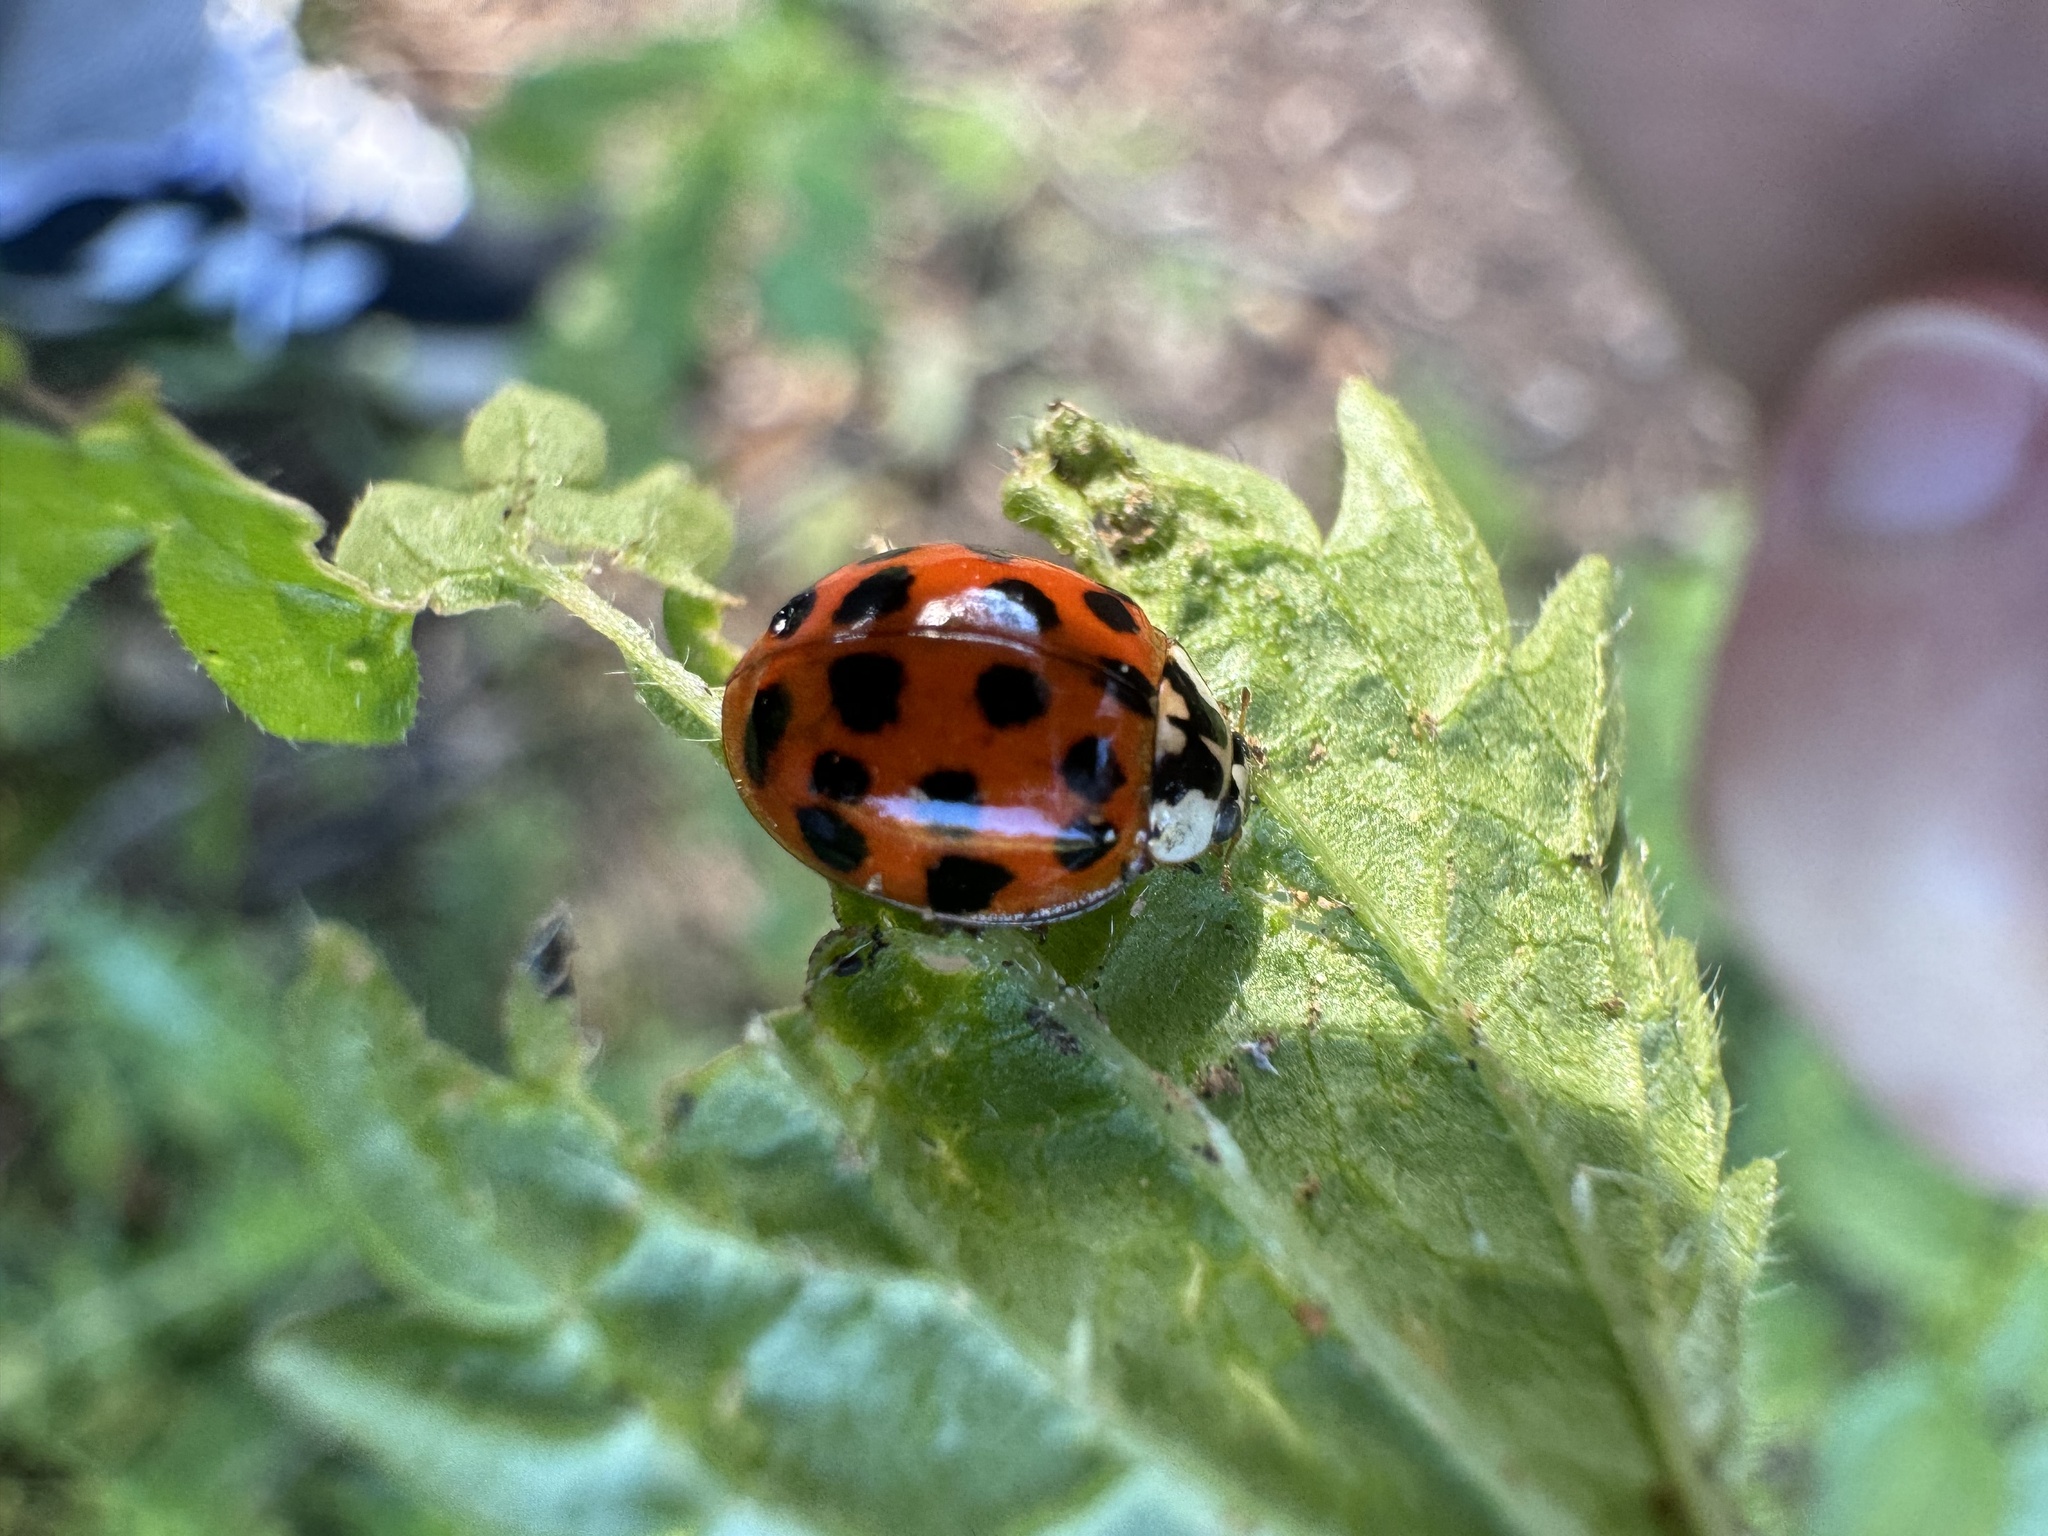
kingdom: Animalia
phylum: Arthropoda
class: Insecta
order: Coleoptera
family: Coccinellidae
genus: Harmonia
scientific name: Harmonia axyridis
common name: Harlequin ladybird
